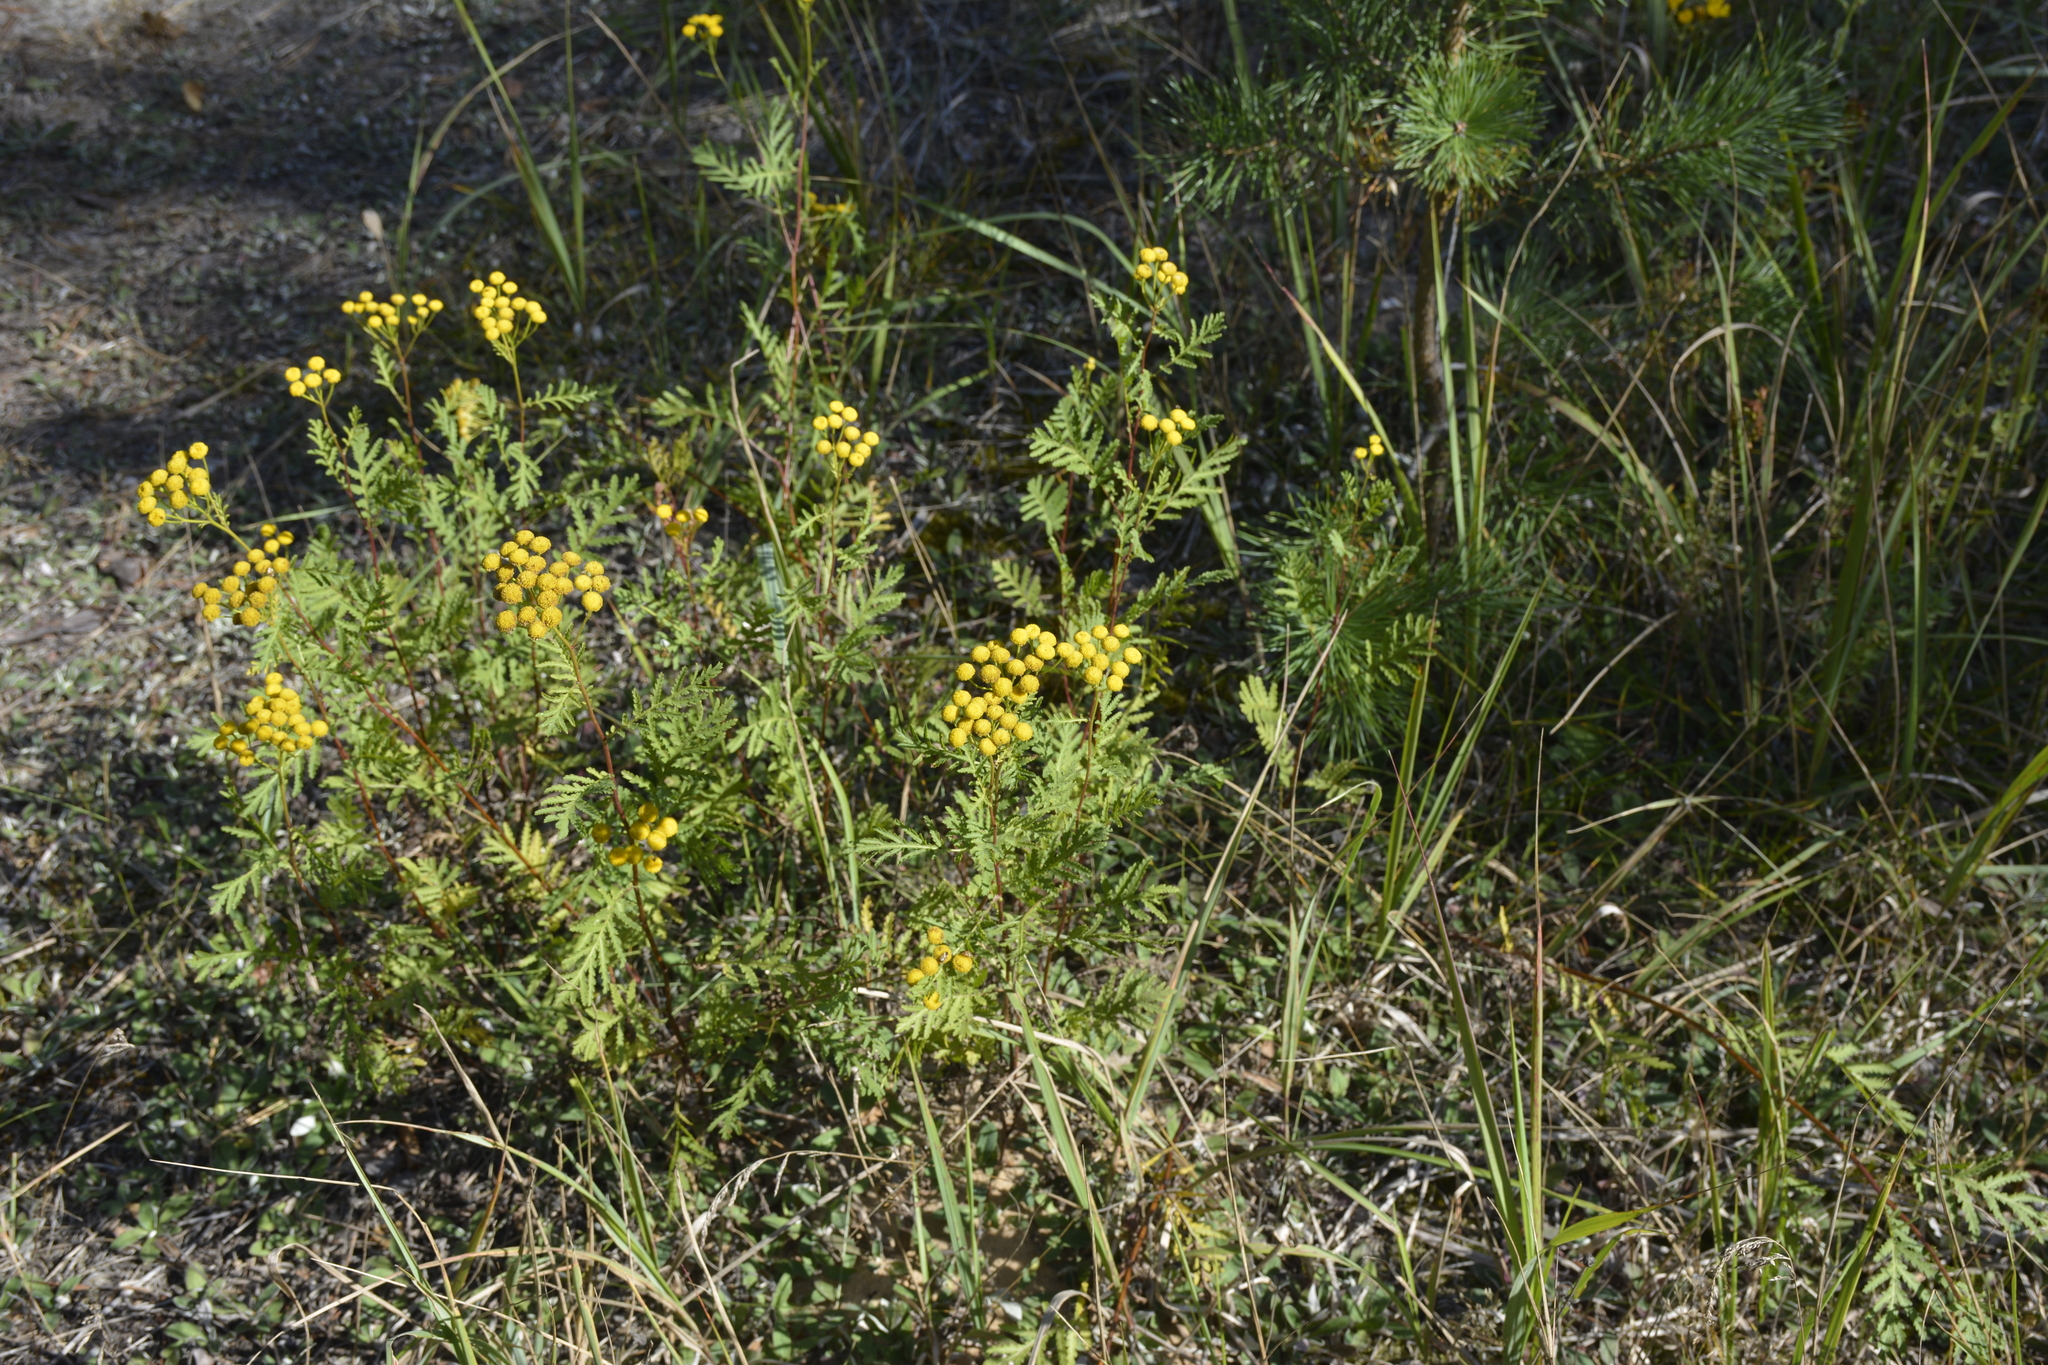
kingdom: Plantae
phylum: Tracheophyta
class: Magnoliopsida
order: Asterales
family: Asteraceae
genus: Tanacetum
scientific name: Tanacetum vulgare
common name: Common tansy
